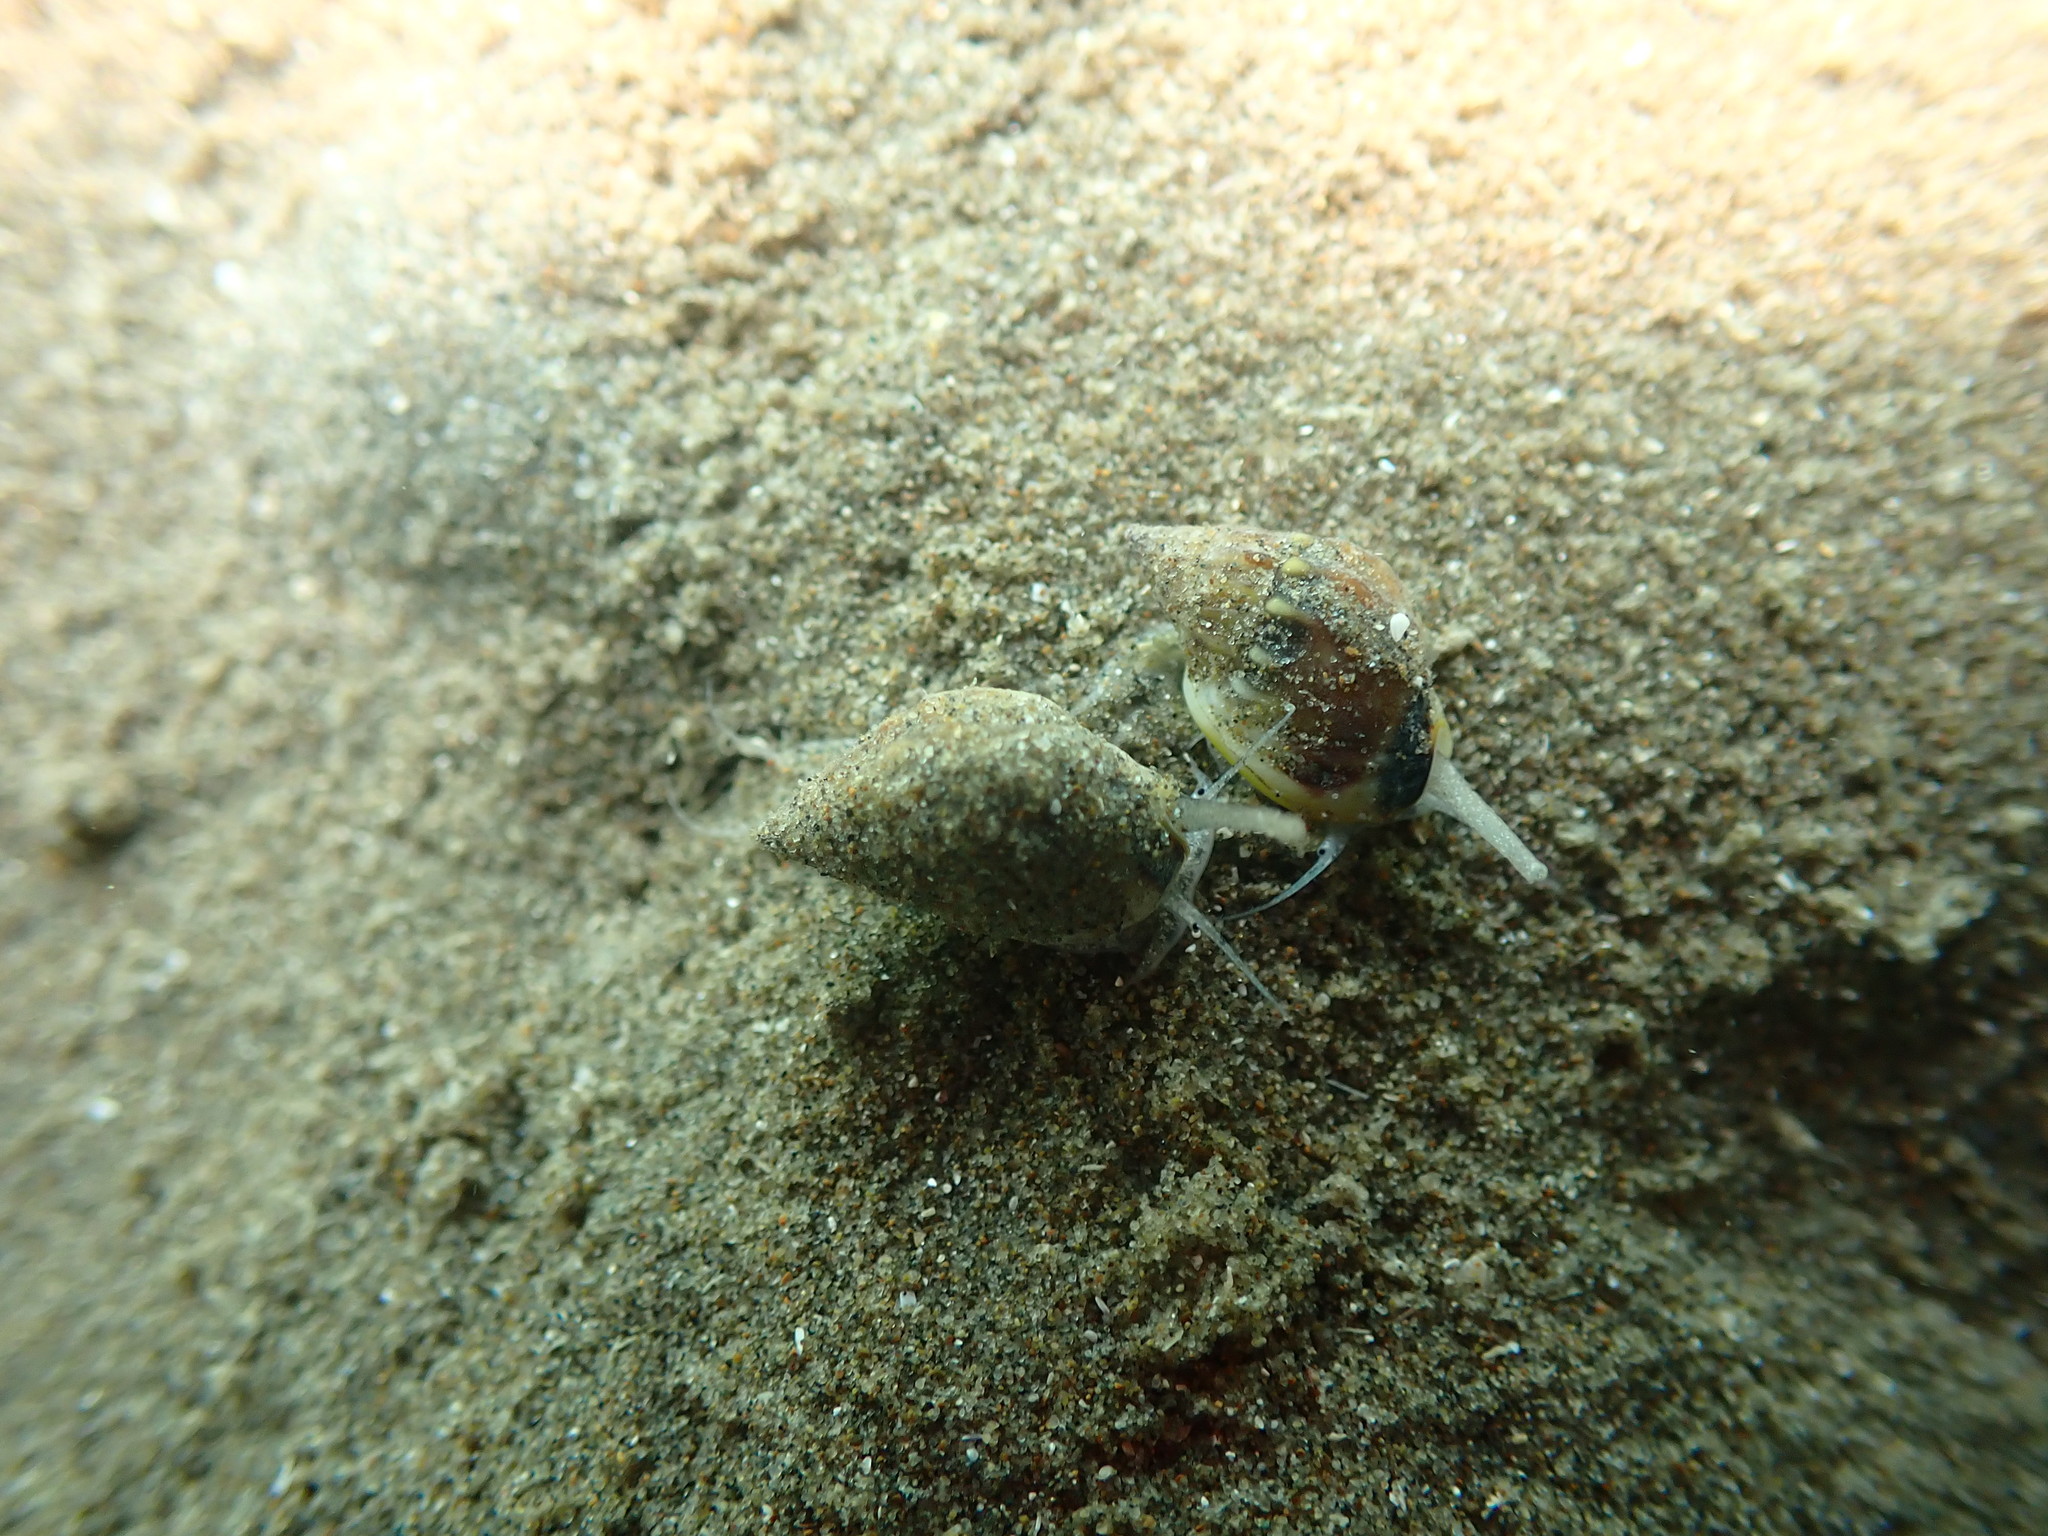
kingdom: Animalia
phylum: Mollusca
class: Gastropoda
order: Neogastropoda
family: Nassariidae
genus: Tritia
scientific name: Tritia burchardi
